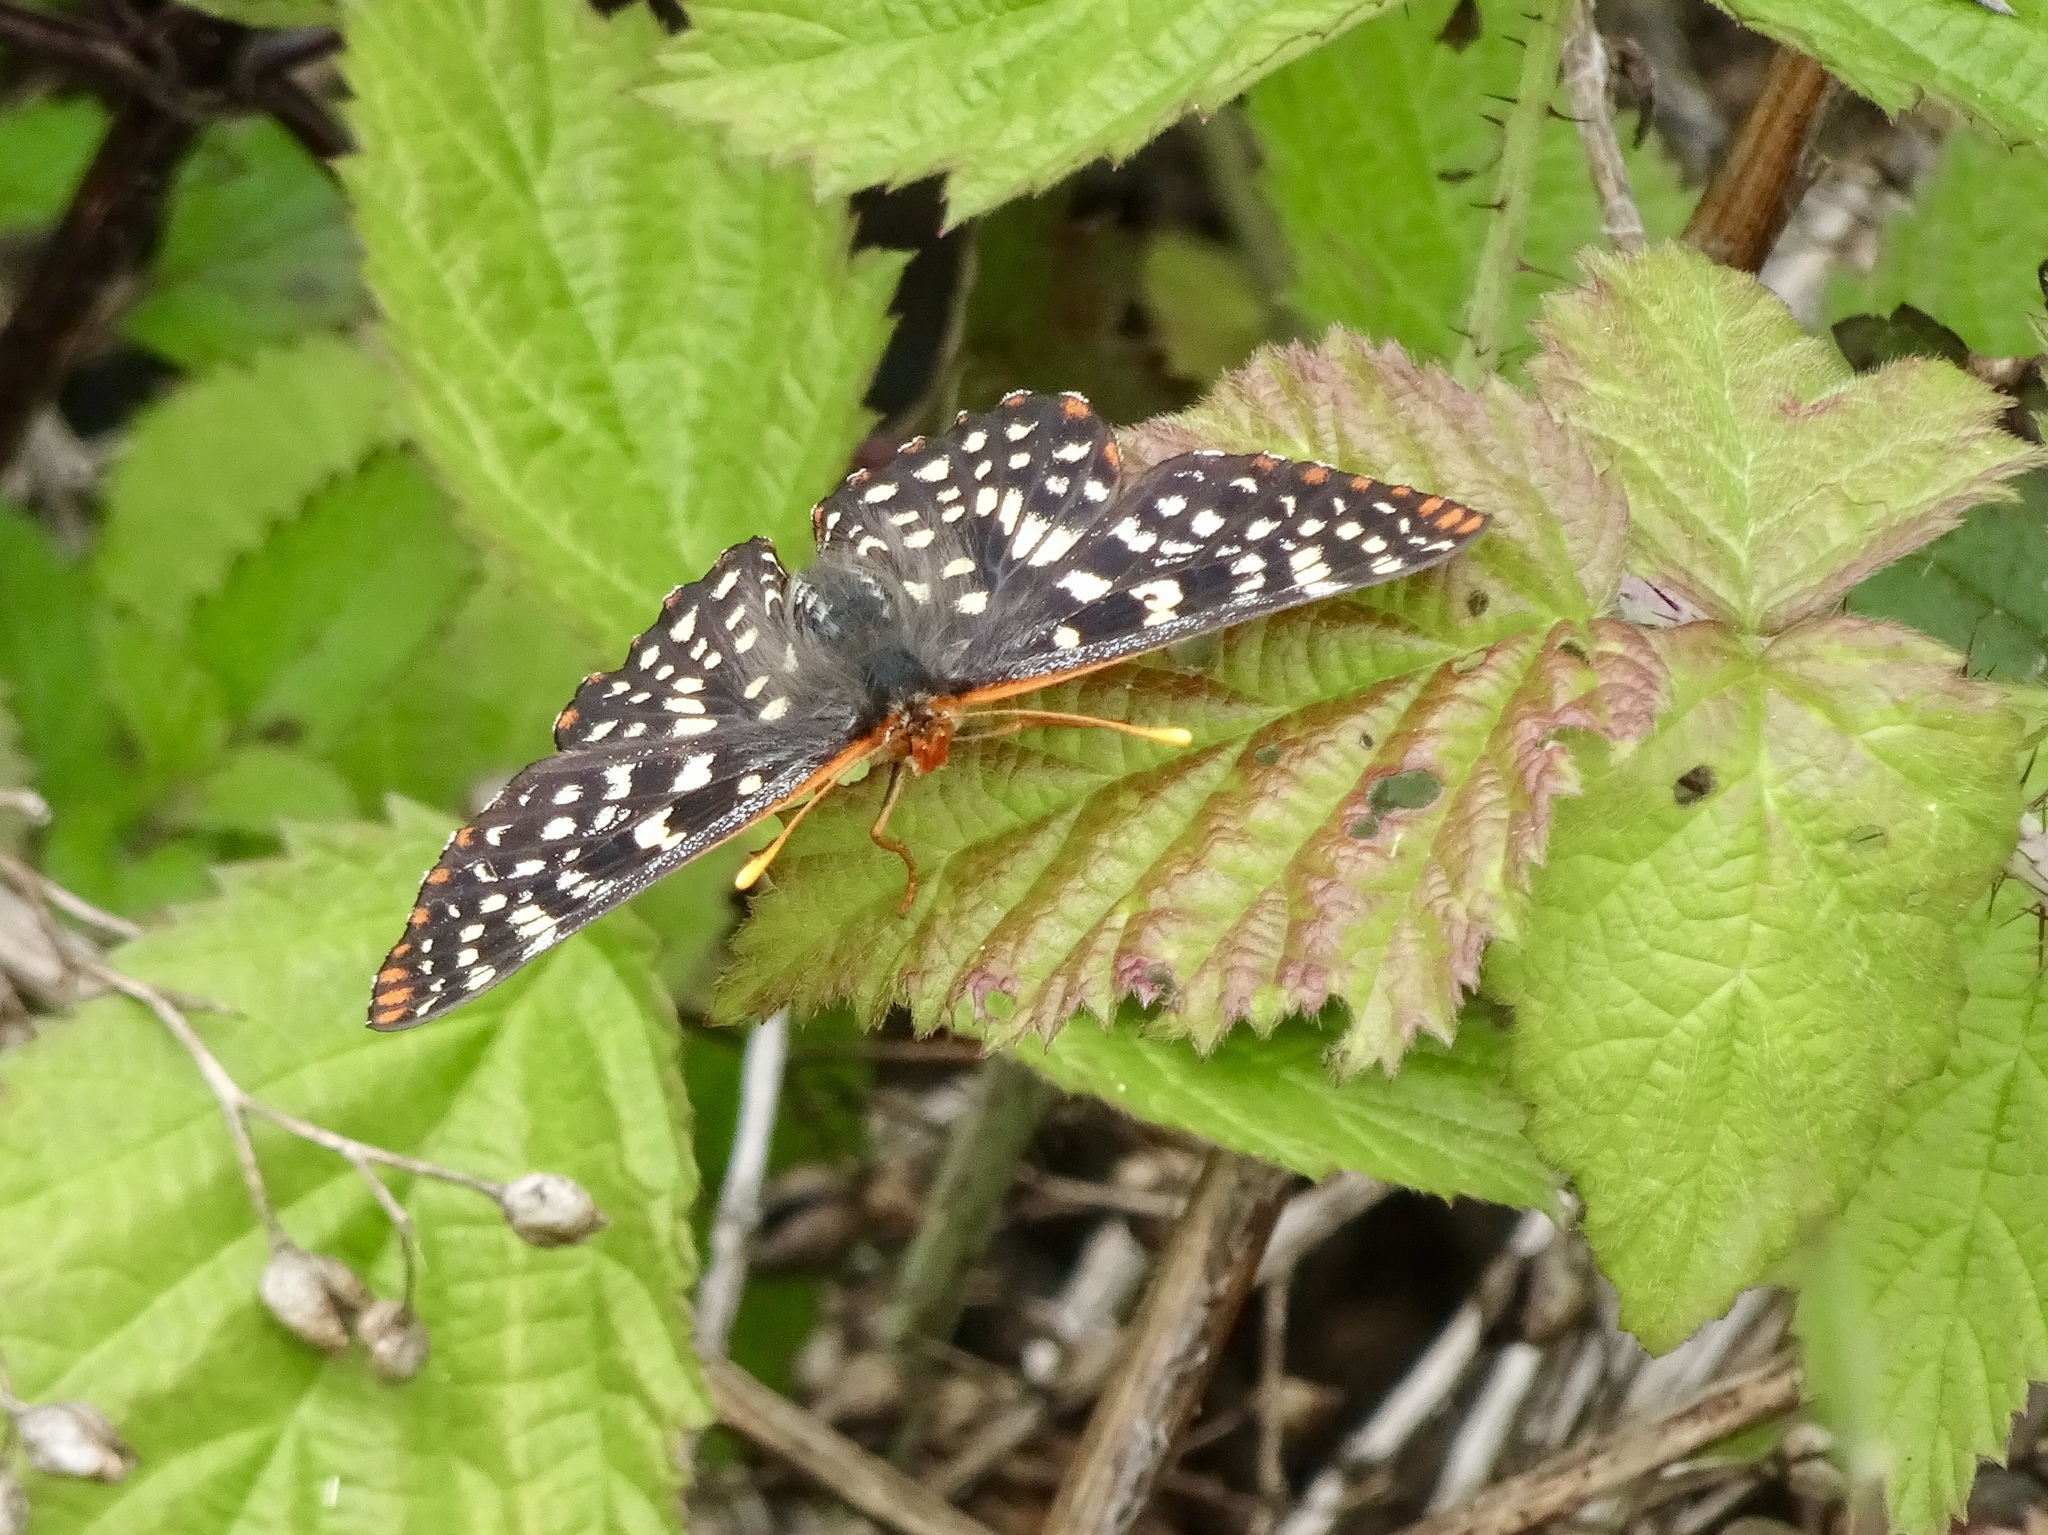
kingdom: Animalia
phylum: Arthropoda
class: Insecta
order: Lepidoptera
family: Nymphalidae
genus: Occidryas
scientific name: Occidryas chalcedona
